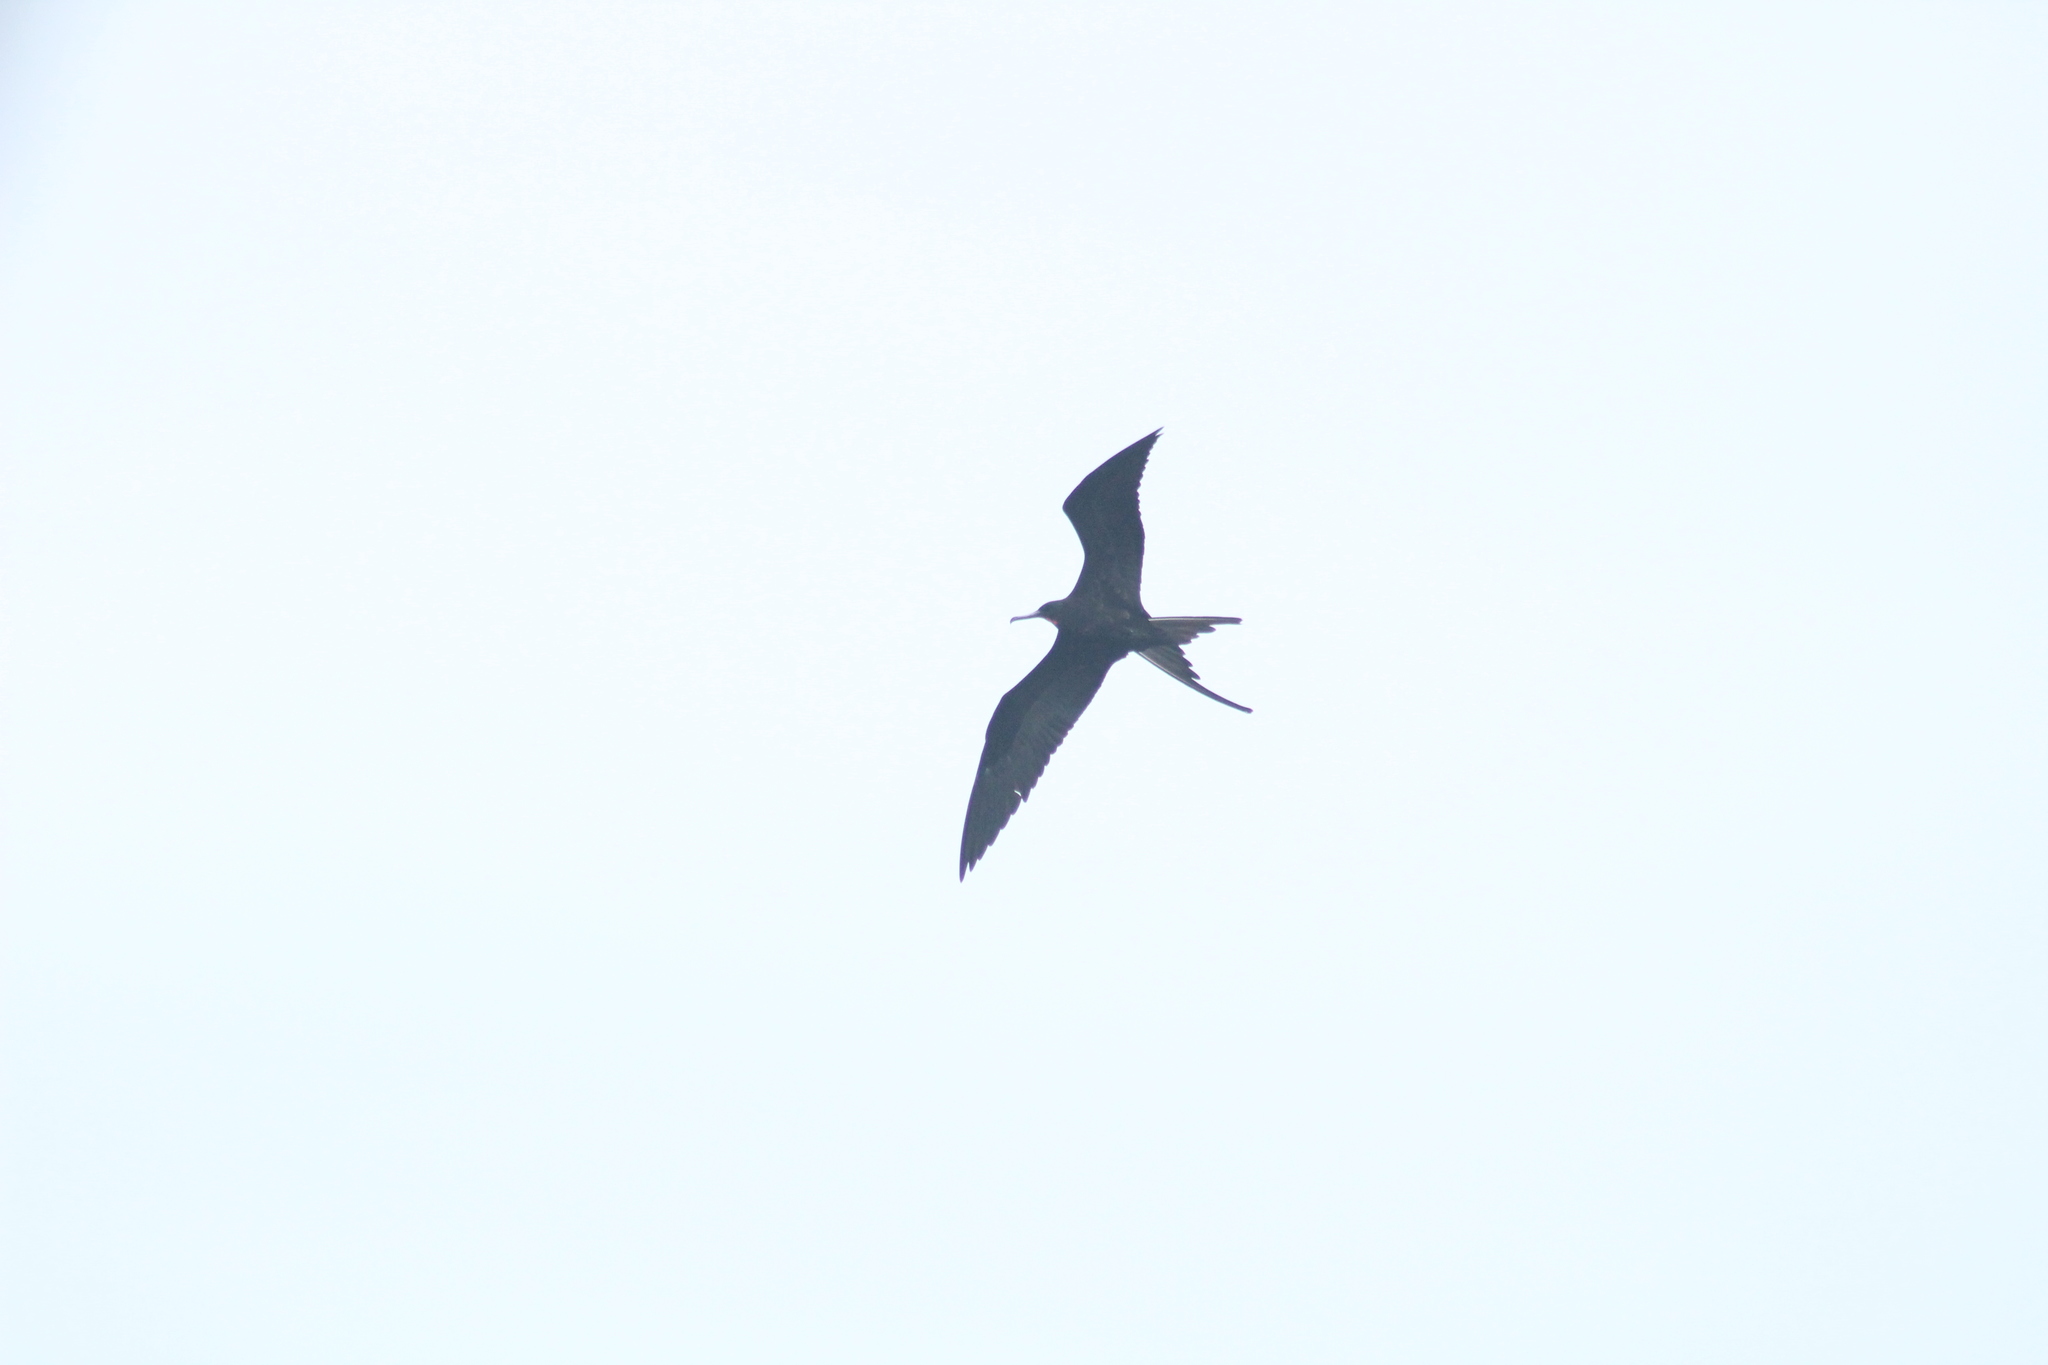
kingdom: Animalia
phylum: Chordata
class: Aves
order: Suliformes
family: Fregatidae
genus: Fregata
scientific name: Fregata magnificens
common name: Magnificent frigatebird
